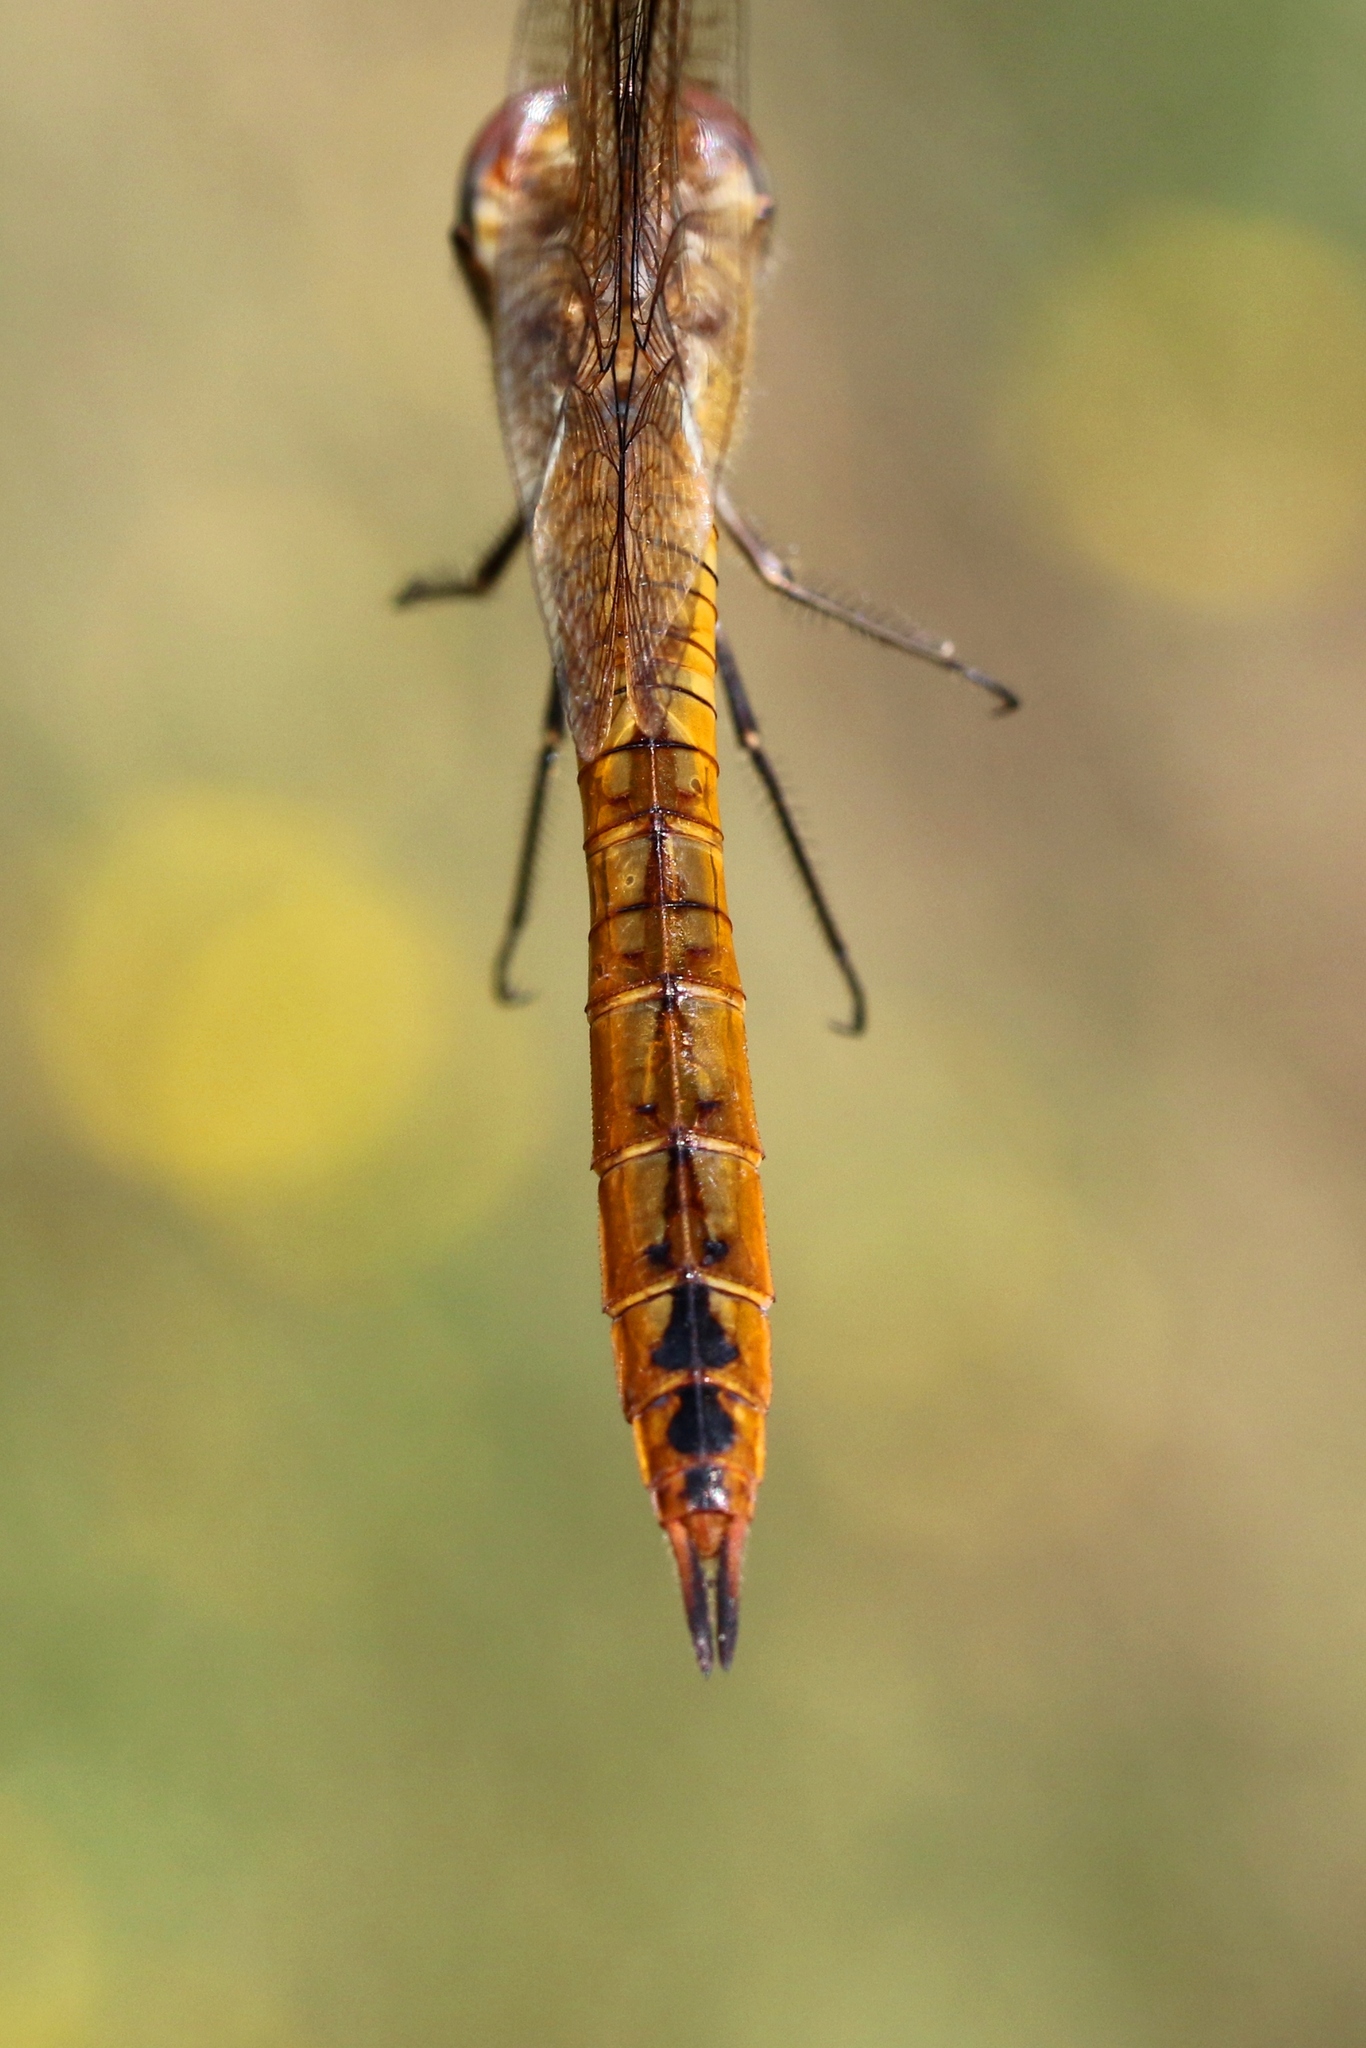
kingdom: Animalia
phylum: Arthropoda
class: Insecta
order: Odonata
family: Libellulidae
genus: Pantala
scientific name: Pantala flavescens
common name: Wandering glider
